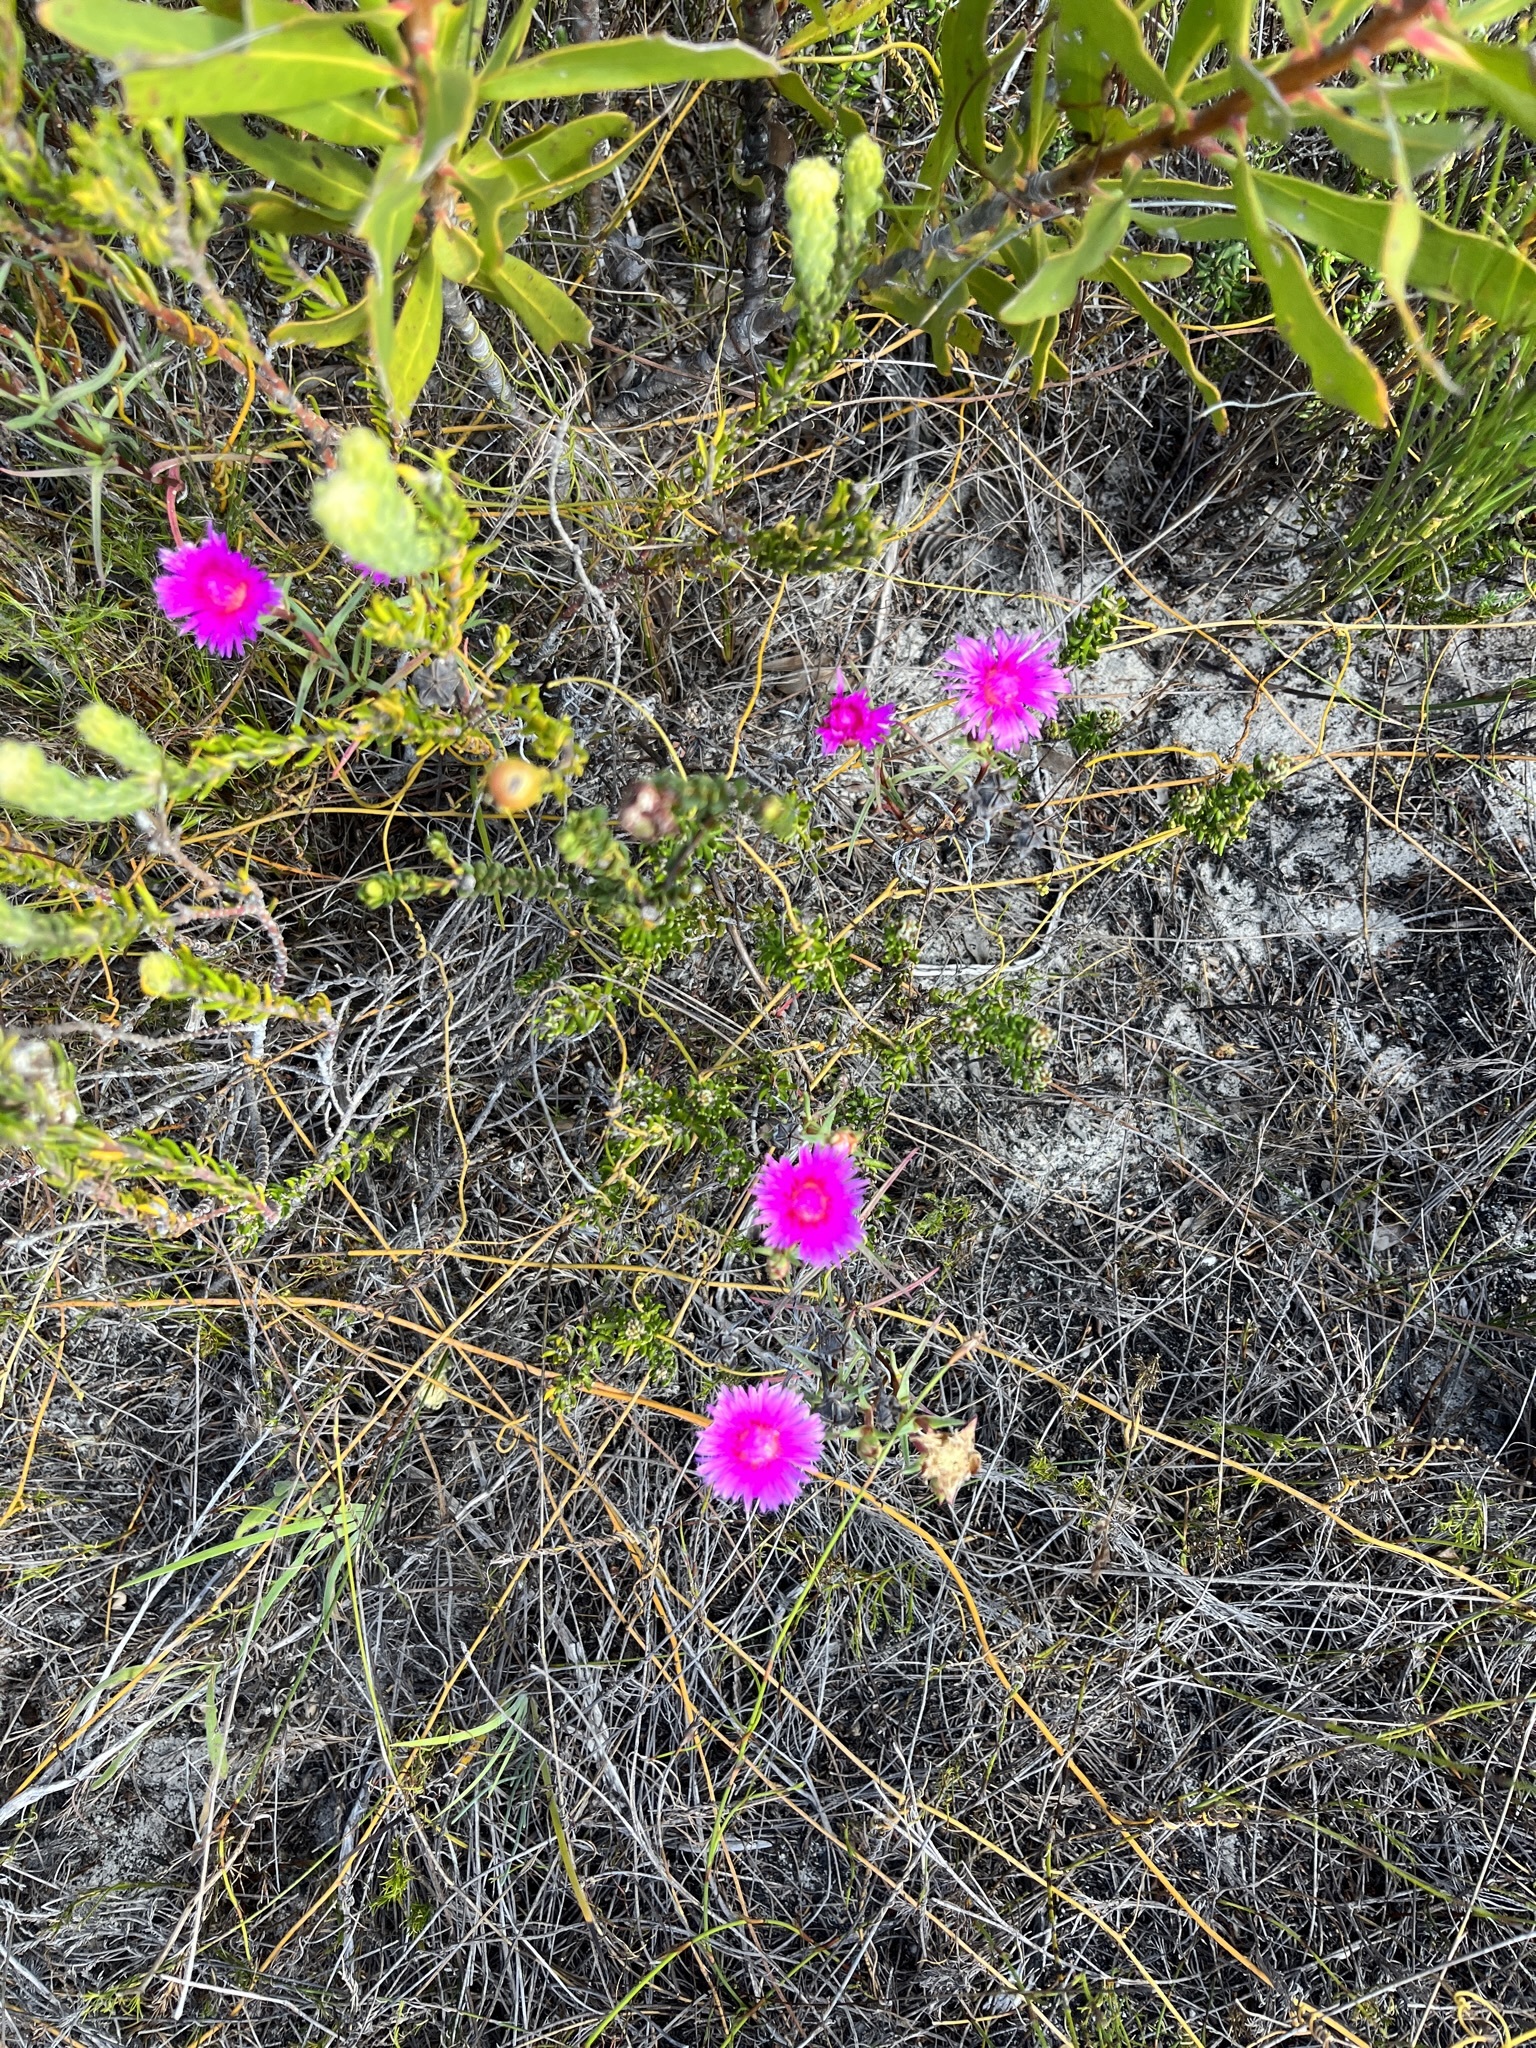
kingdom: Plantae
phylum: Tracheophyta
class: Magnoliopsida
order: Caryophyllales
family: Aizoaceae
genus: Lampranthus
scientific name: Lampranthus tenuifolius
